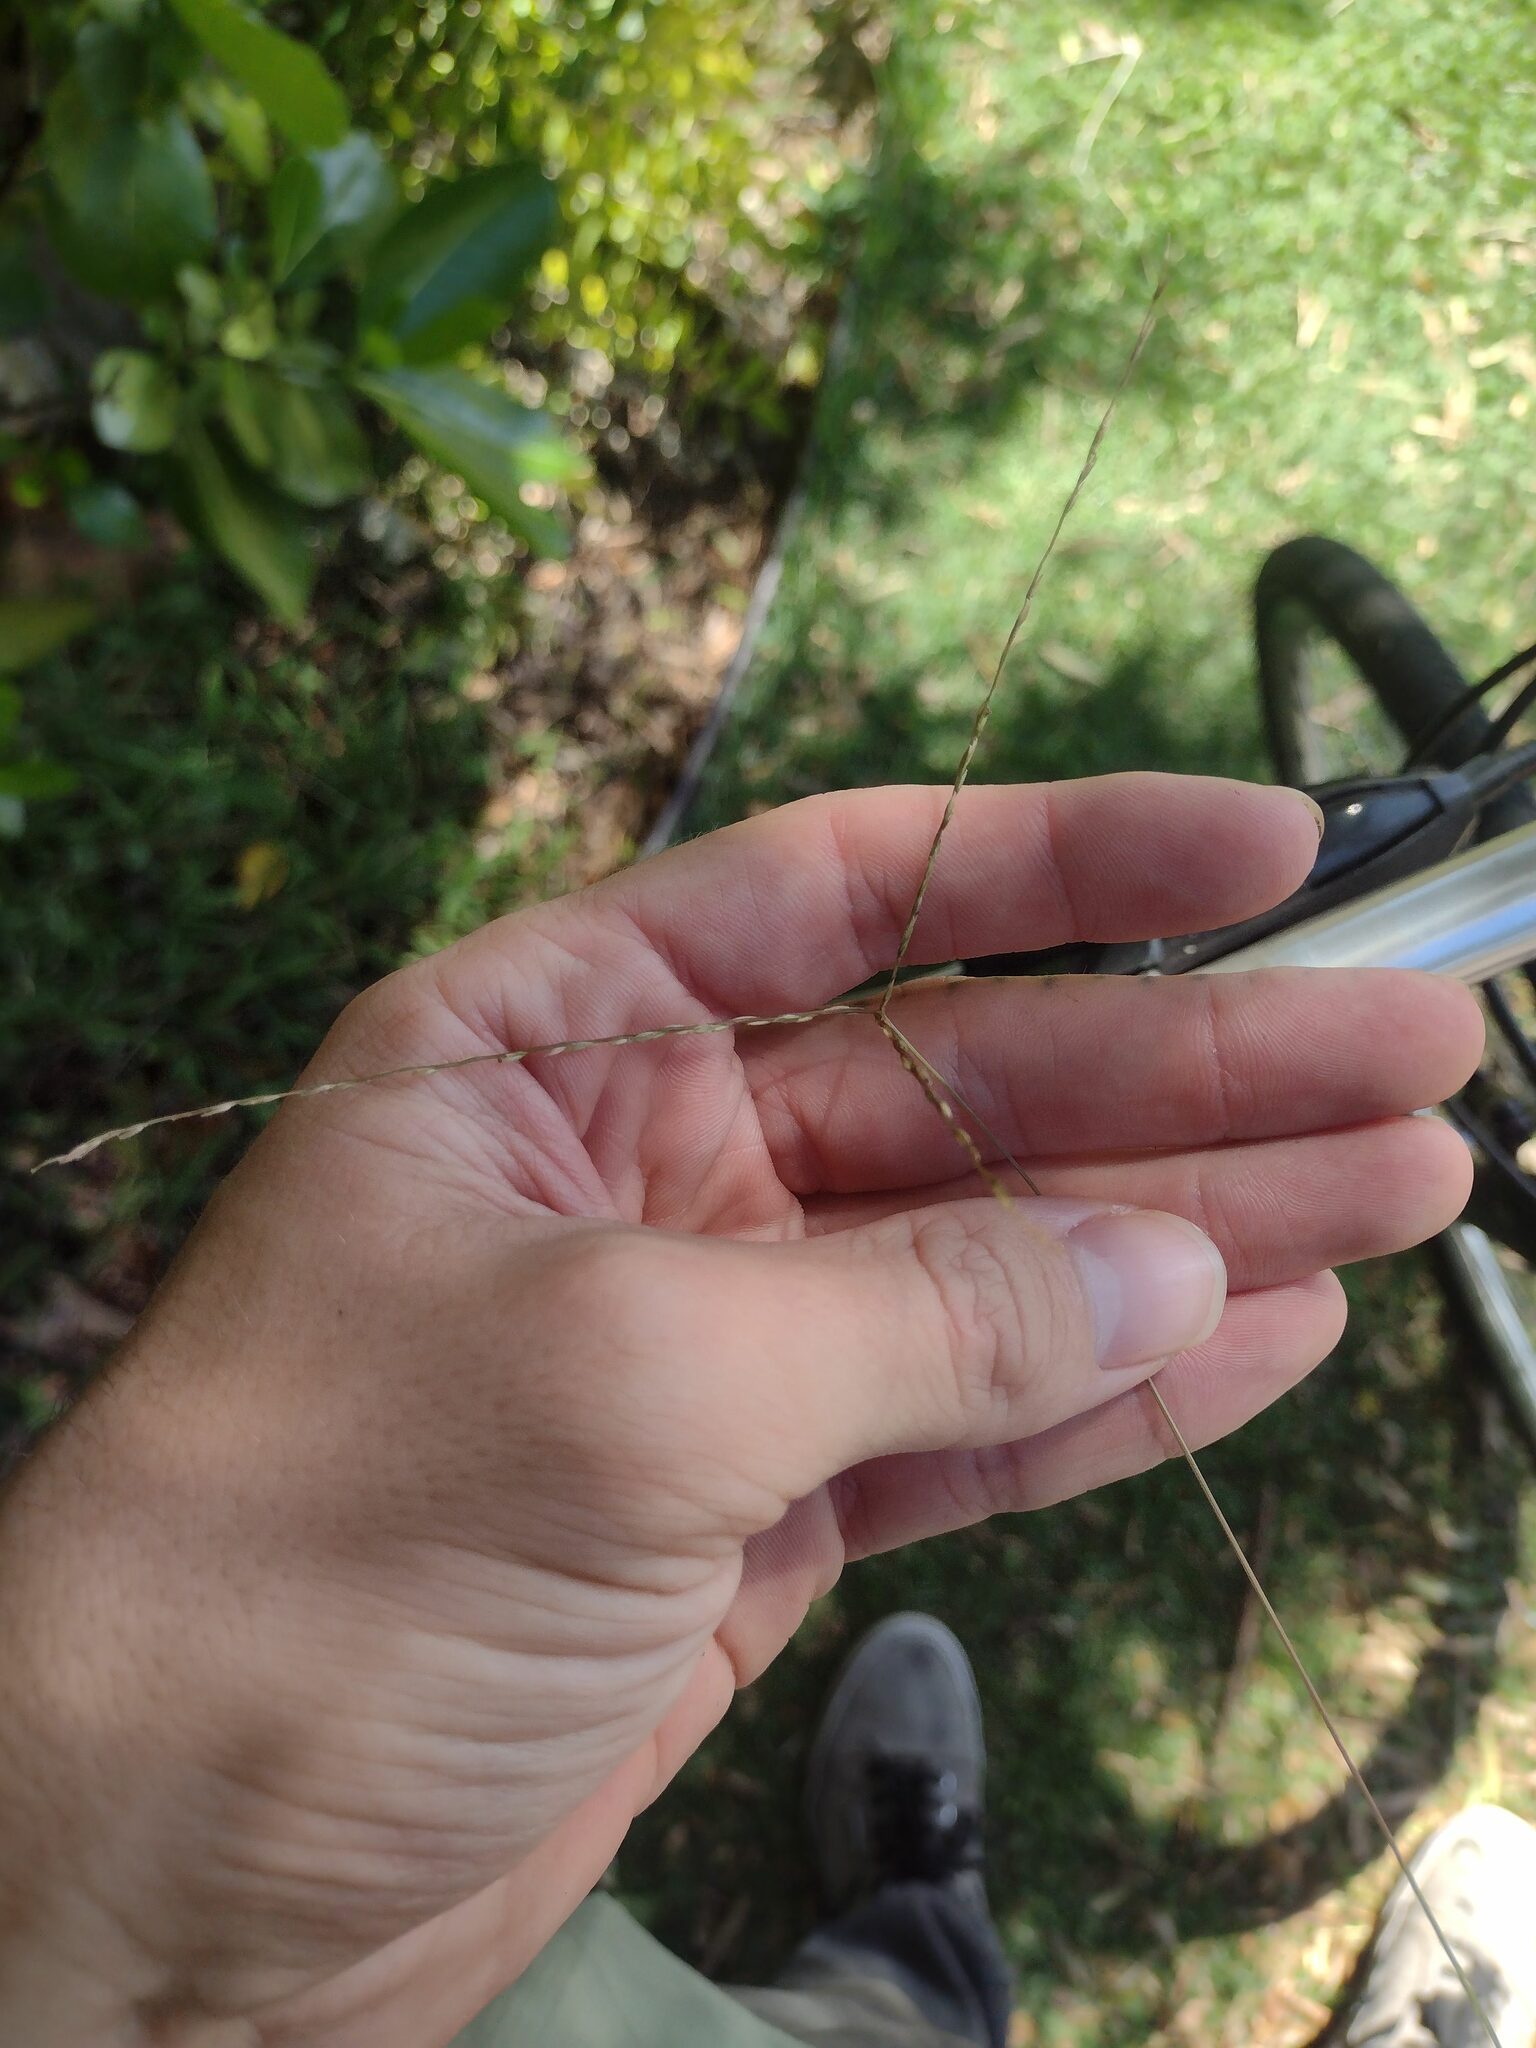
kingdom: Plantae
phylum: Tracheophyta
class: Liliopsida
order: Poales
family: Poaceae
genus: Digitaria
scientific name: Digitaria radicosa
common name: Trailing crabgrass
